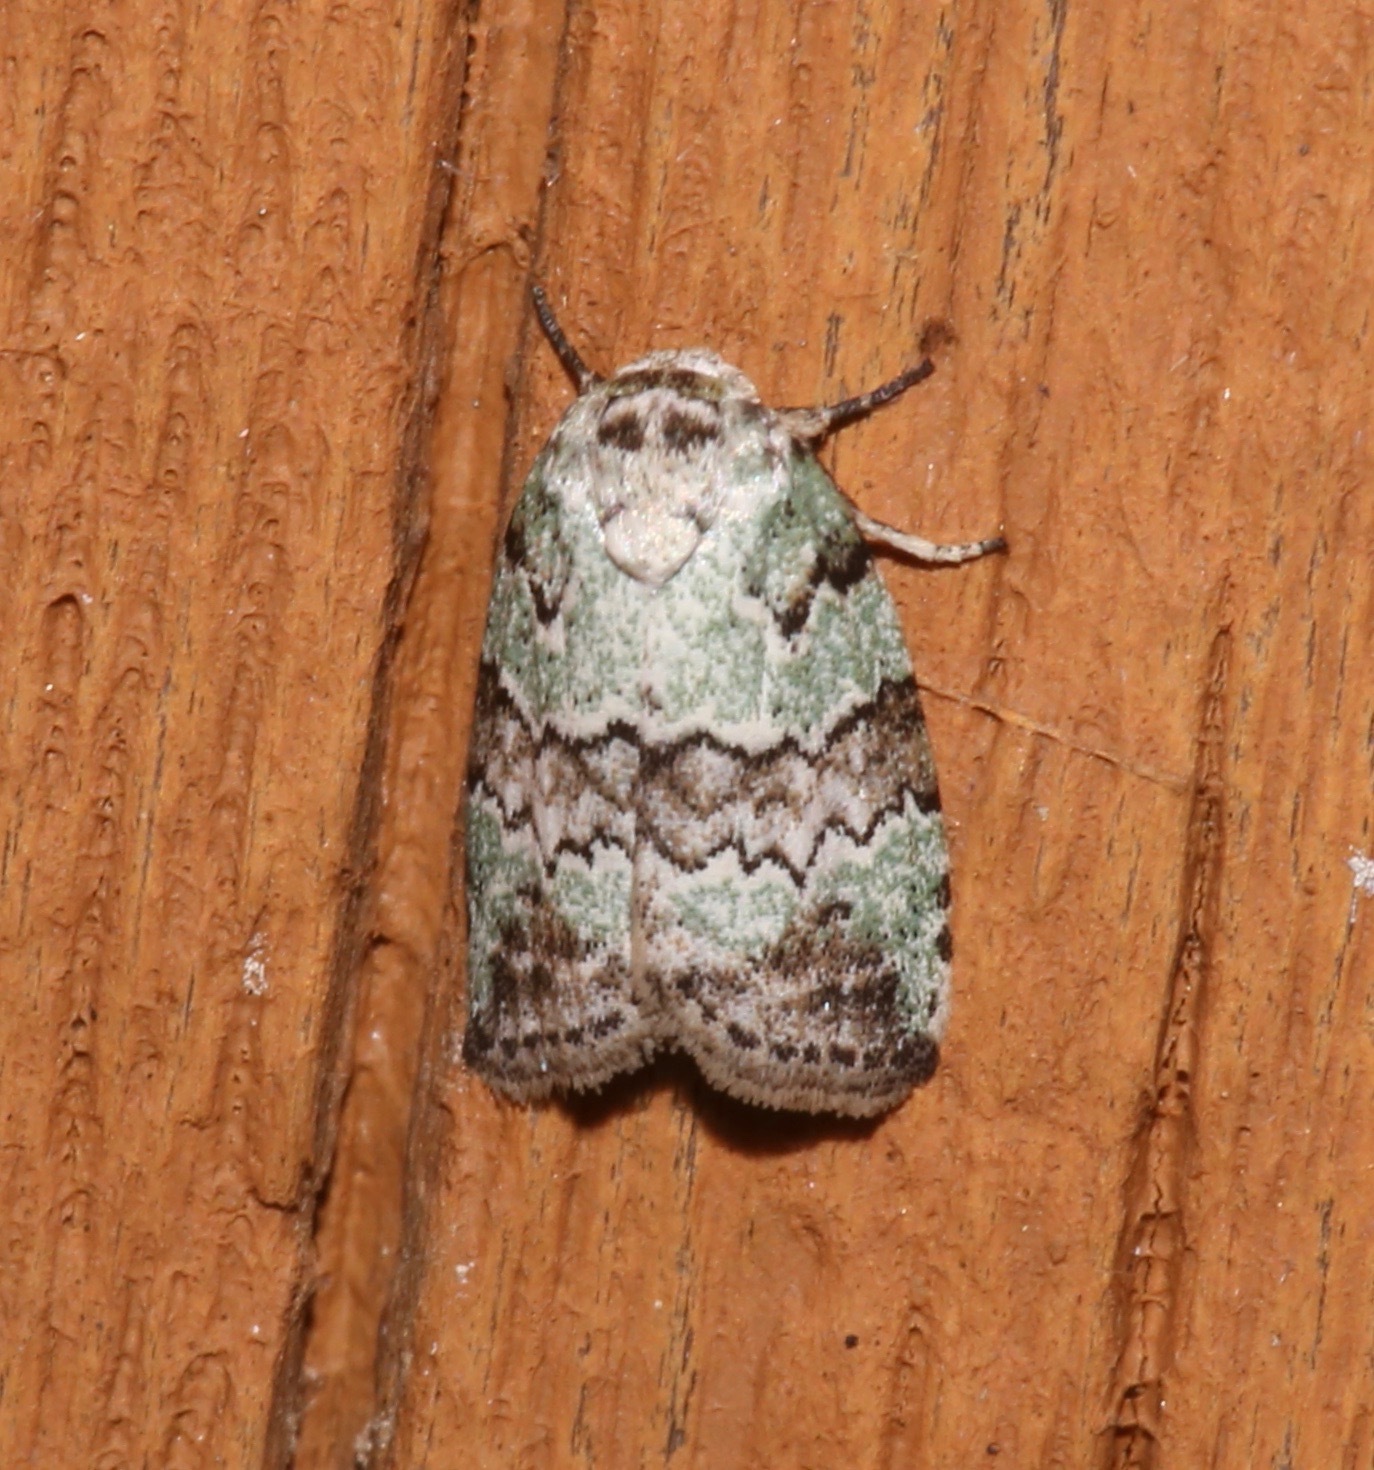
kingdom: Animalia
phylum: Arthropoda
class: Insecta
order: Lepidoptera
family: Nolidae
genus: Afrida
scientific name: Afrida ydatodes
